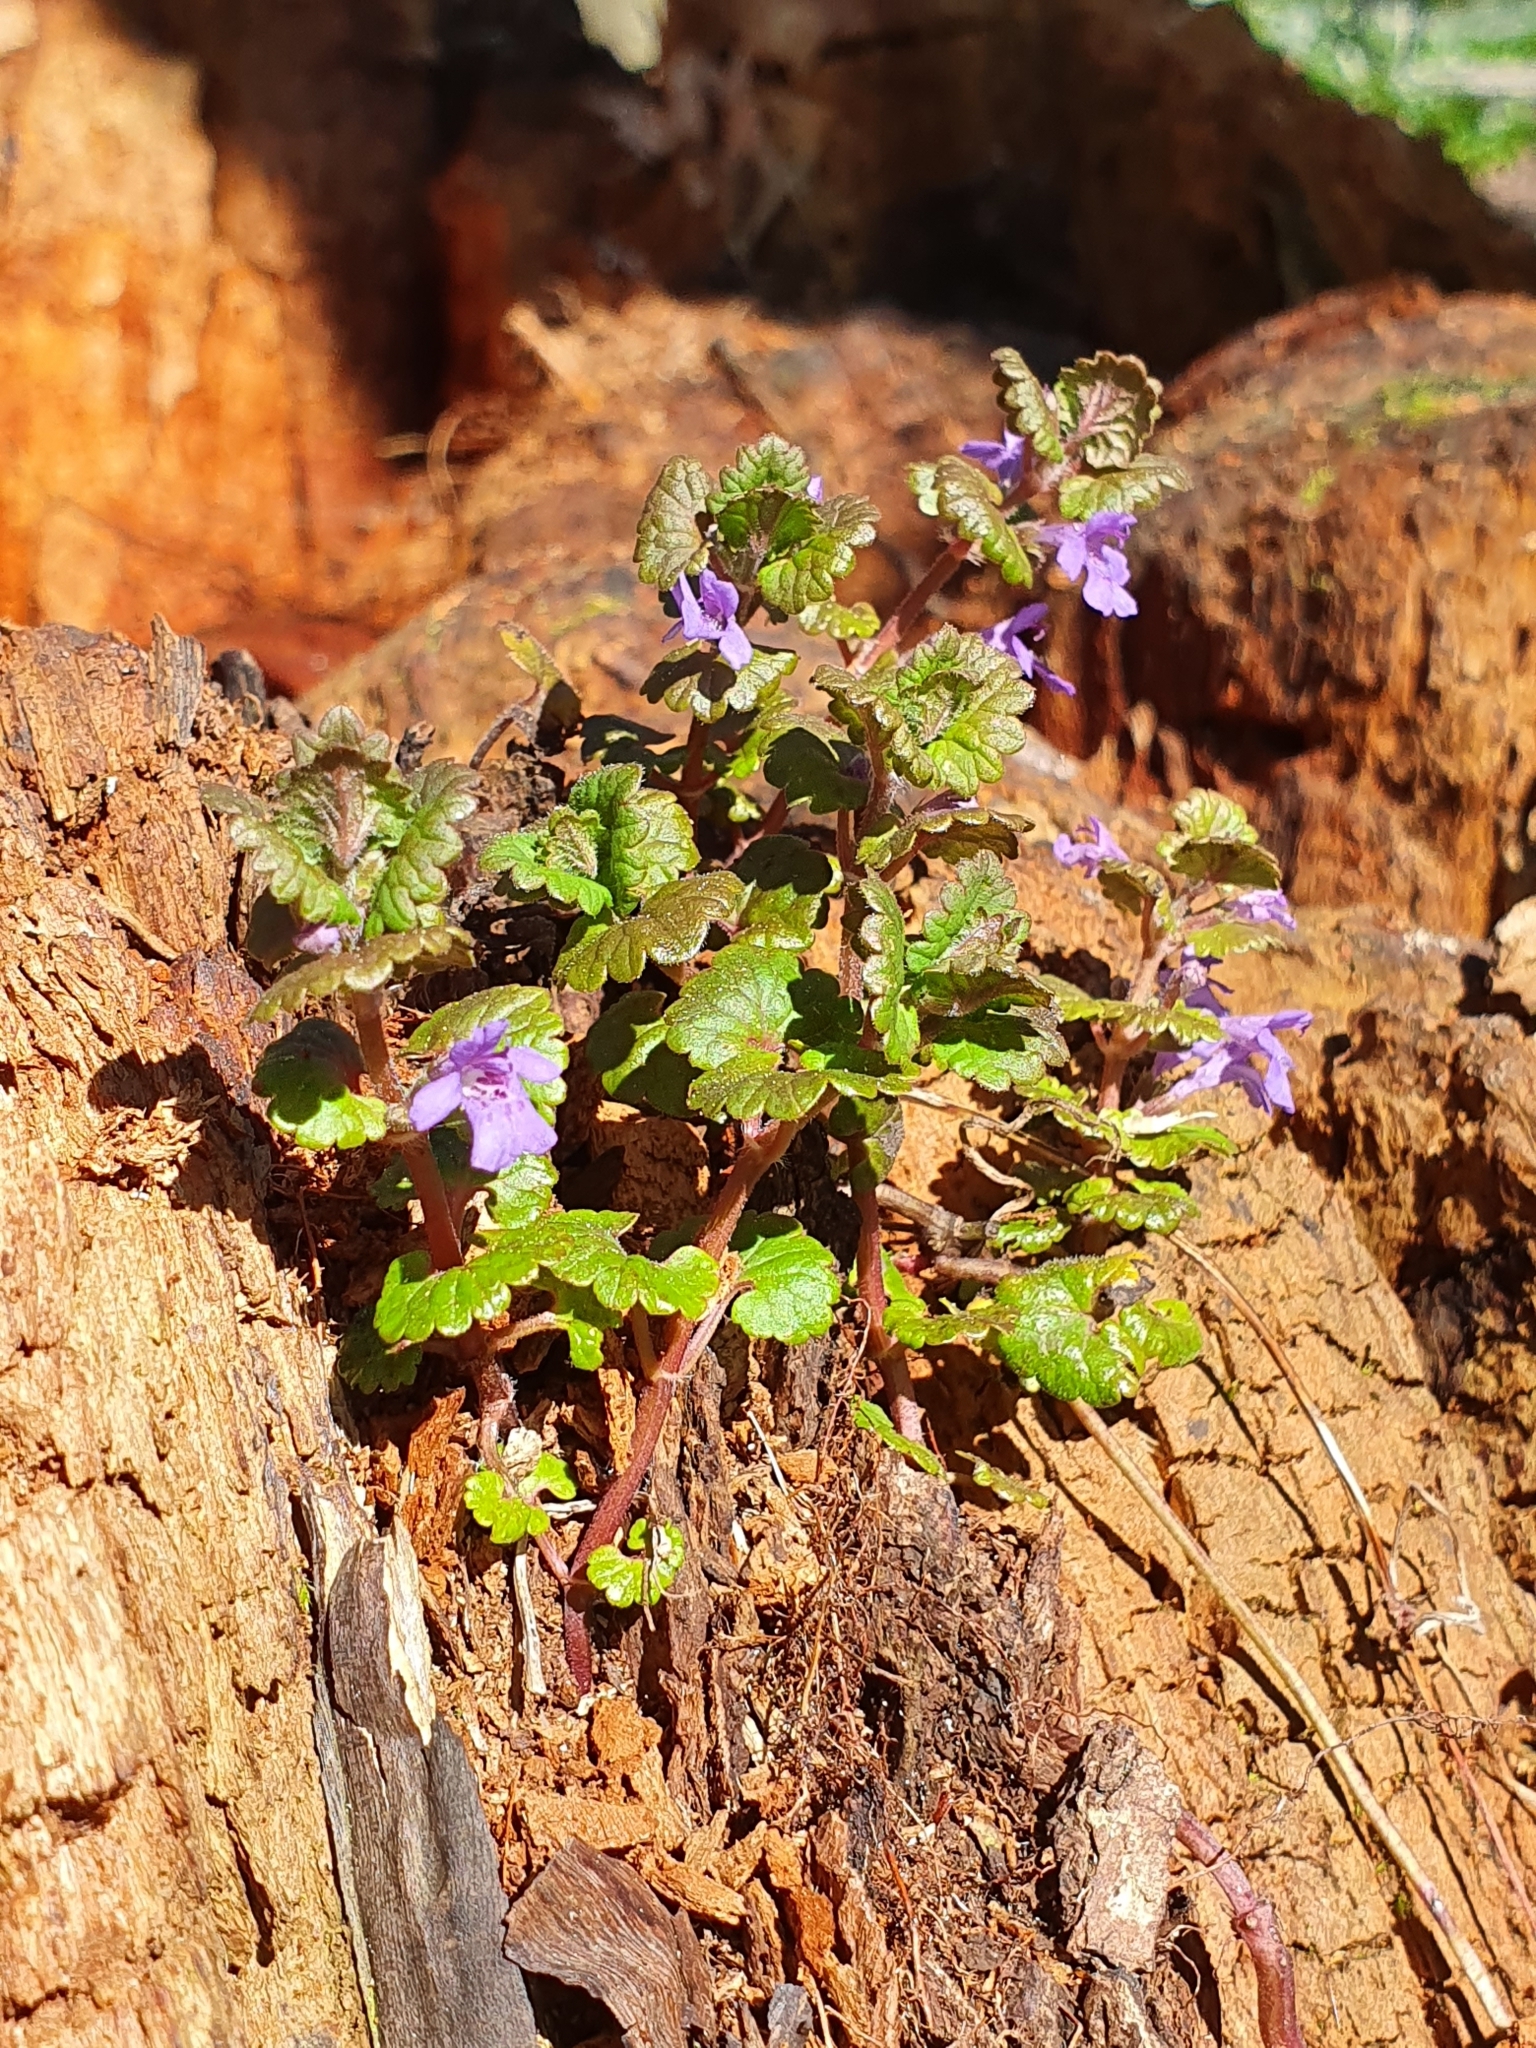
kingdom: Plantae
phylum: Tracheophyta
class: Magnoliopsida
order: Lamiales
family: Lamiaceae
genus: Glechoma
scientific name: Glechoma hederacea
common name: Ground ivy
